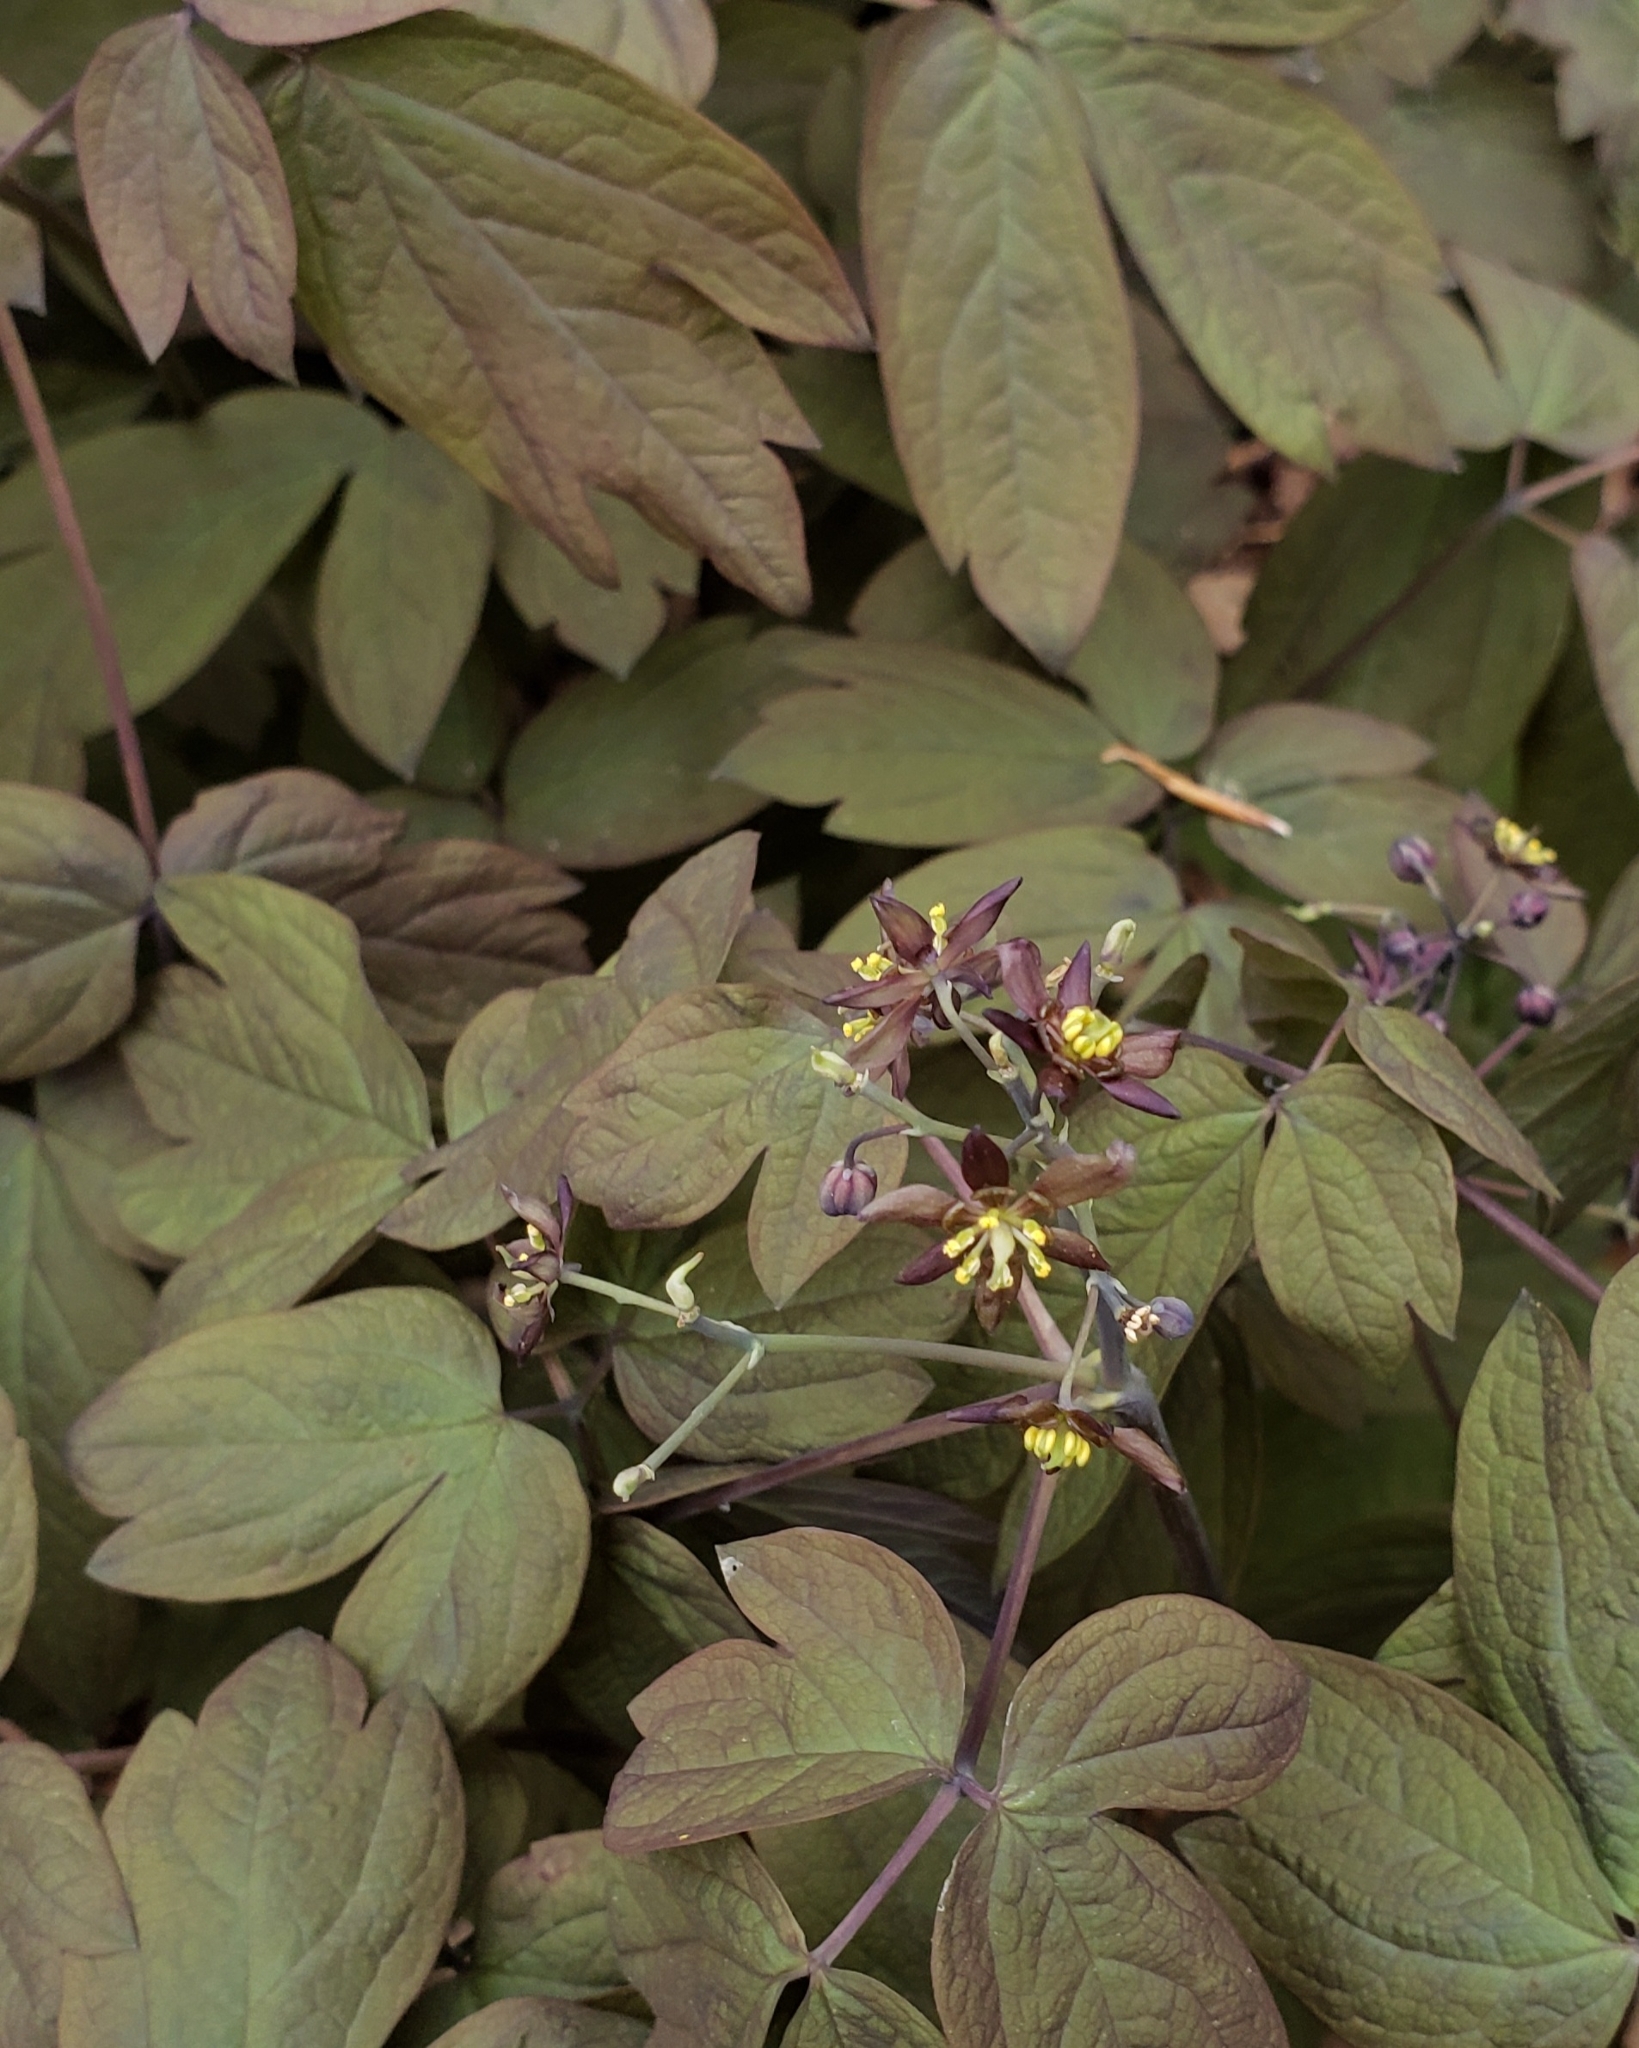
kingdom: Plantae
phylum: Tracheophyta
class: Magnoliopsida
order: Ranunculales
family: Berberidaceae
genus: Caulophyllum
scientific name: Caulophyllum giganteum
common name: Blue cohosh
